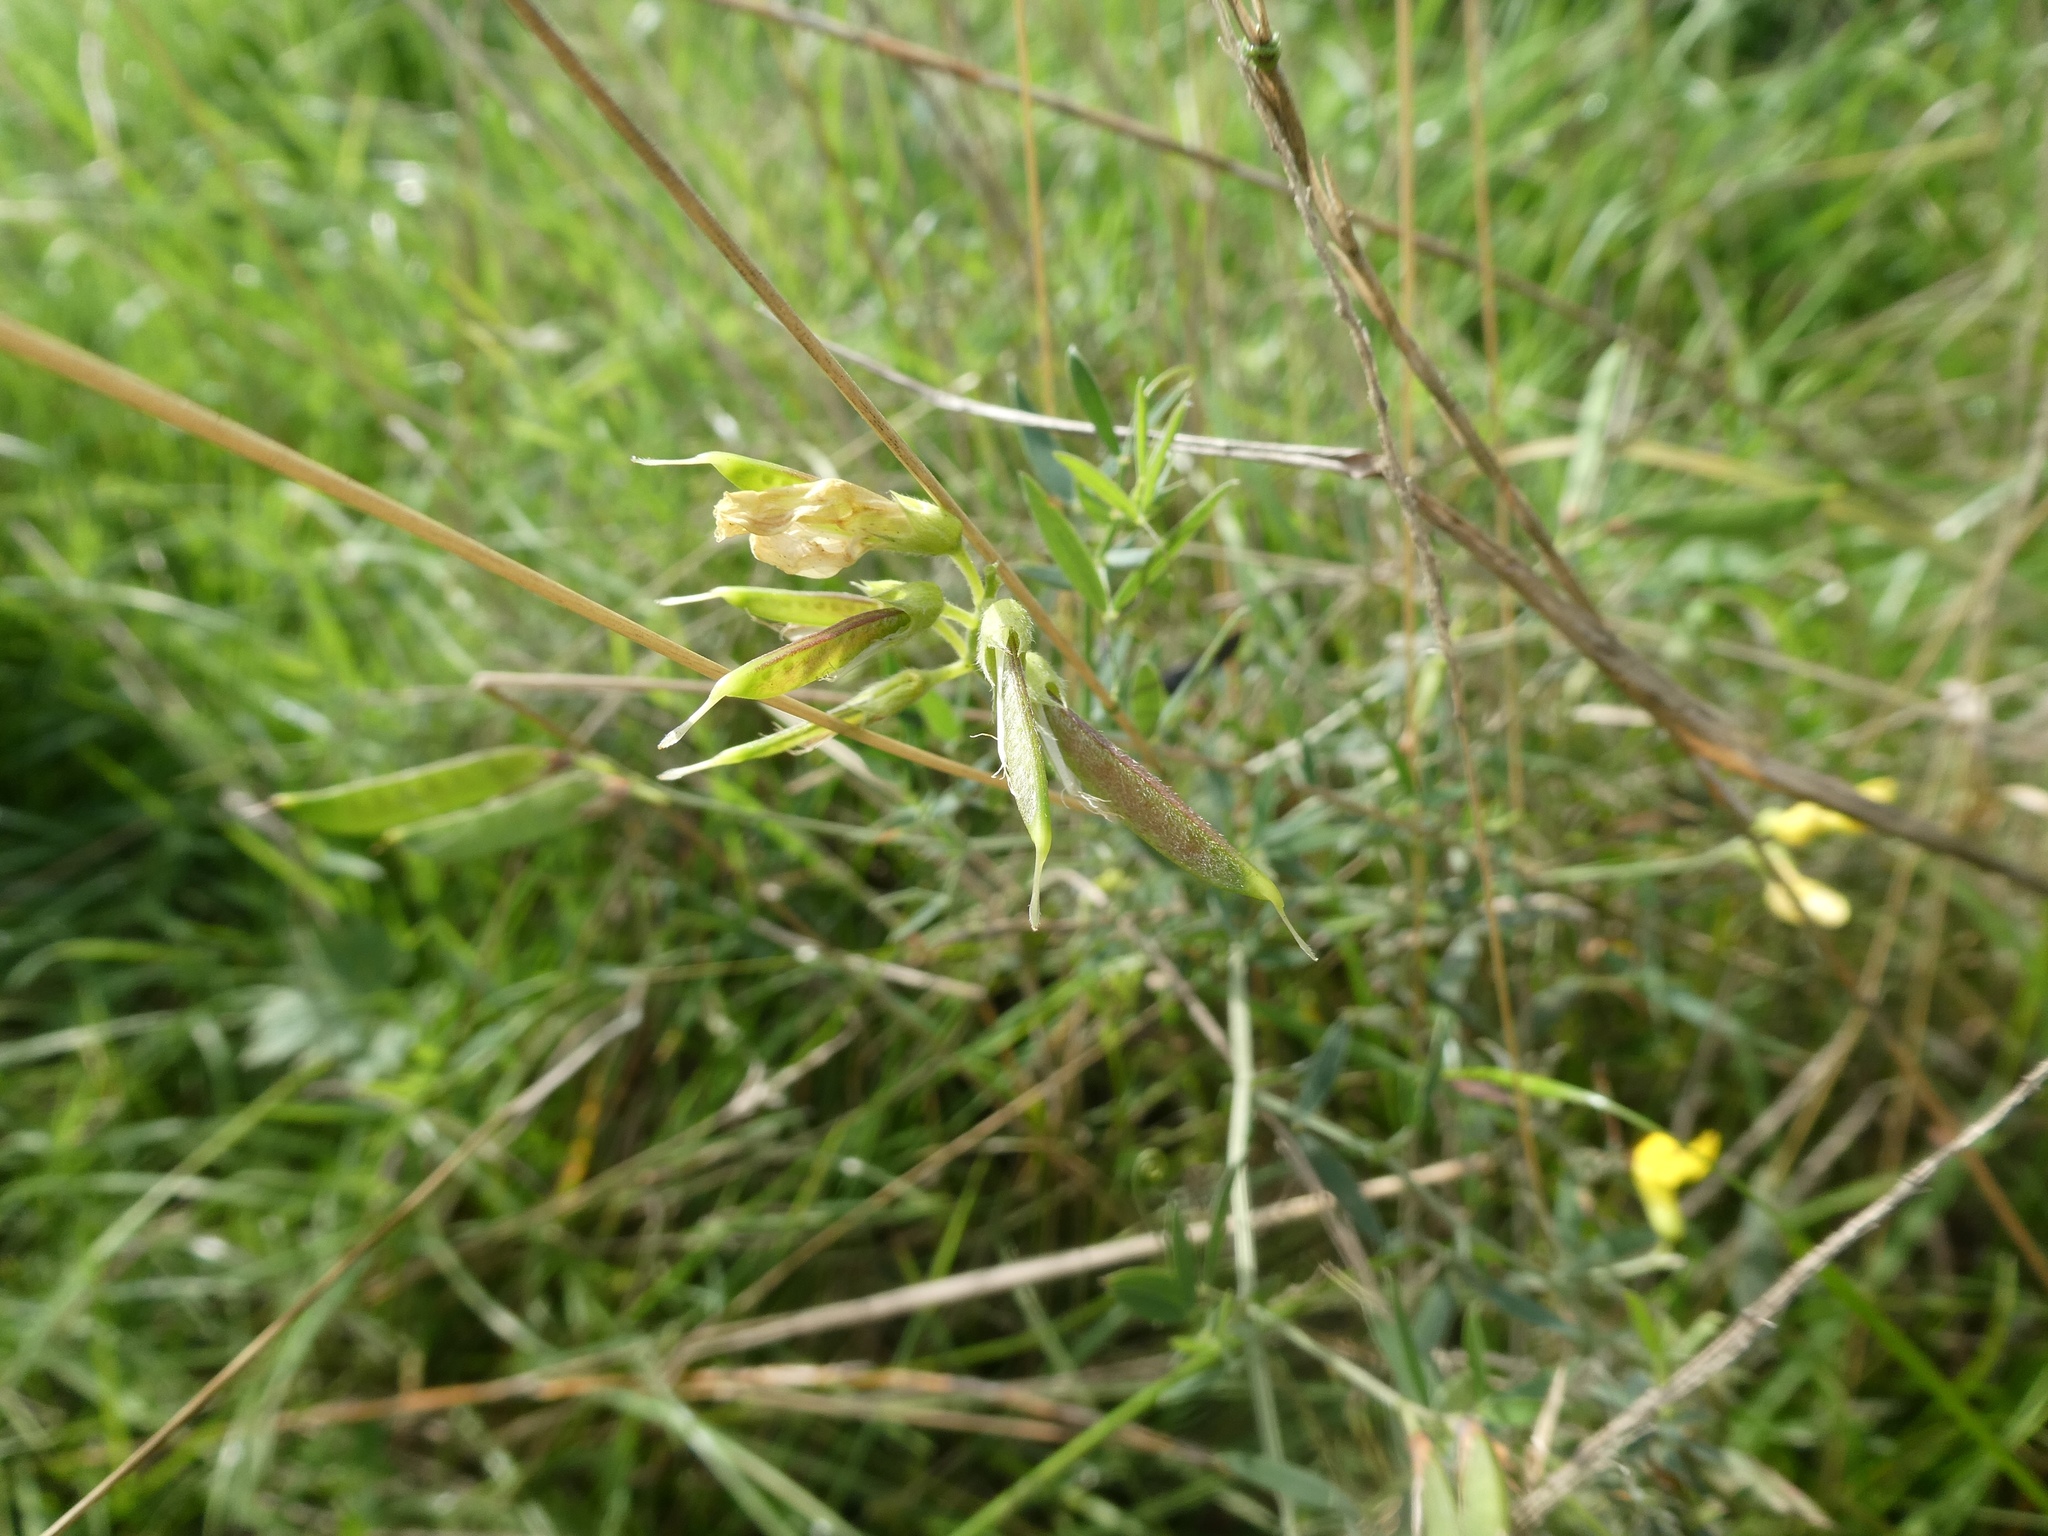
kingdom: Plantae
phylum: Tracheophyta
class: Magnoliopsida
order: Fabales
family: Fabaceae
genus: Lathyrus
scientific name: Lathyrus pratensis
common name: Meadow vetchling
